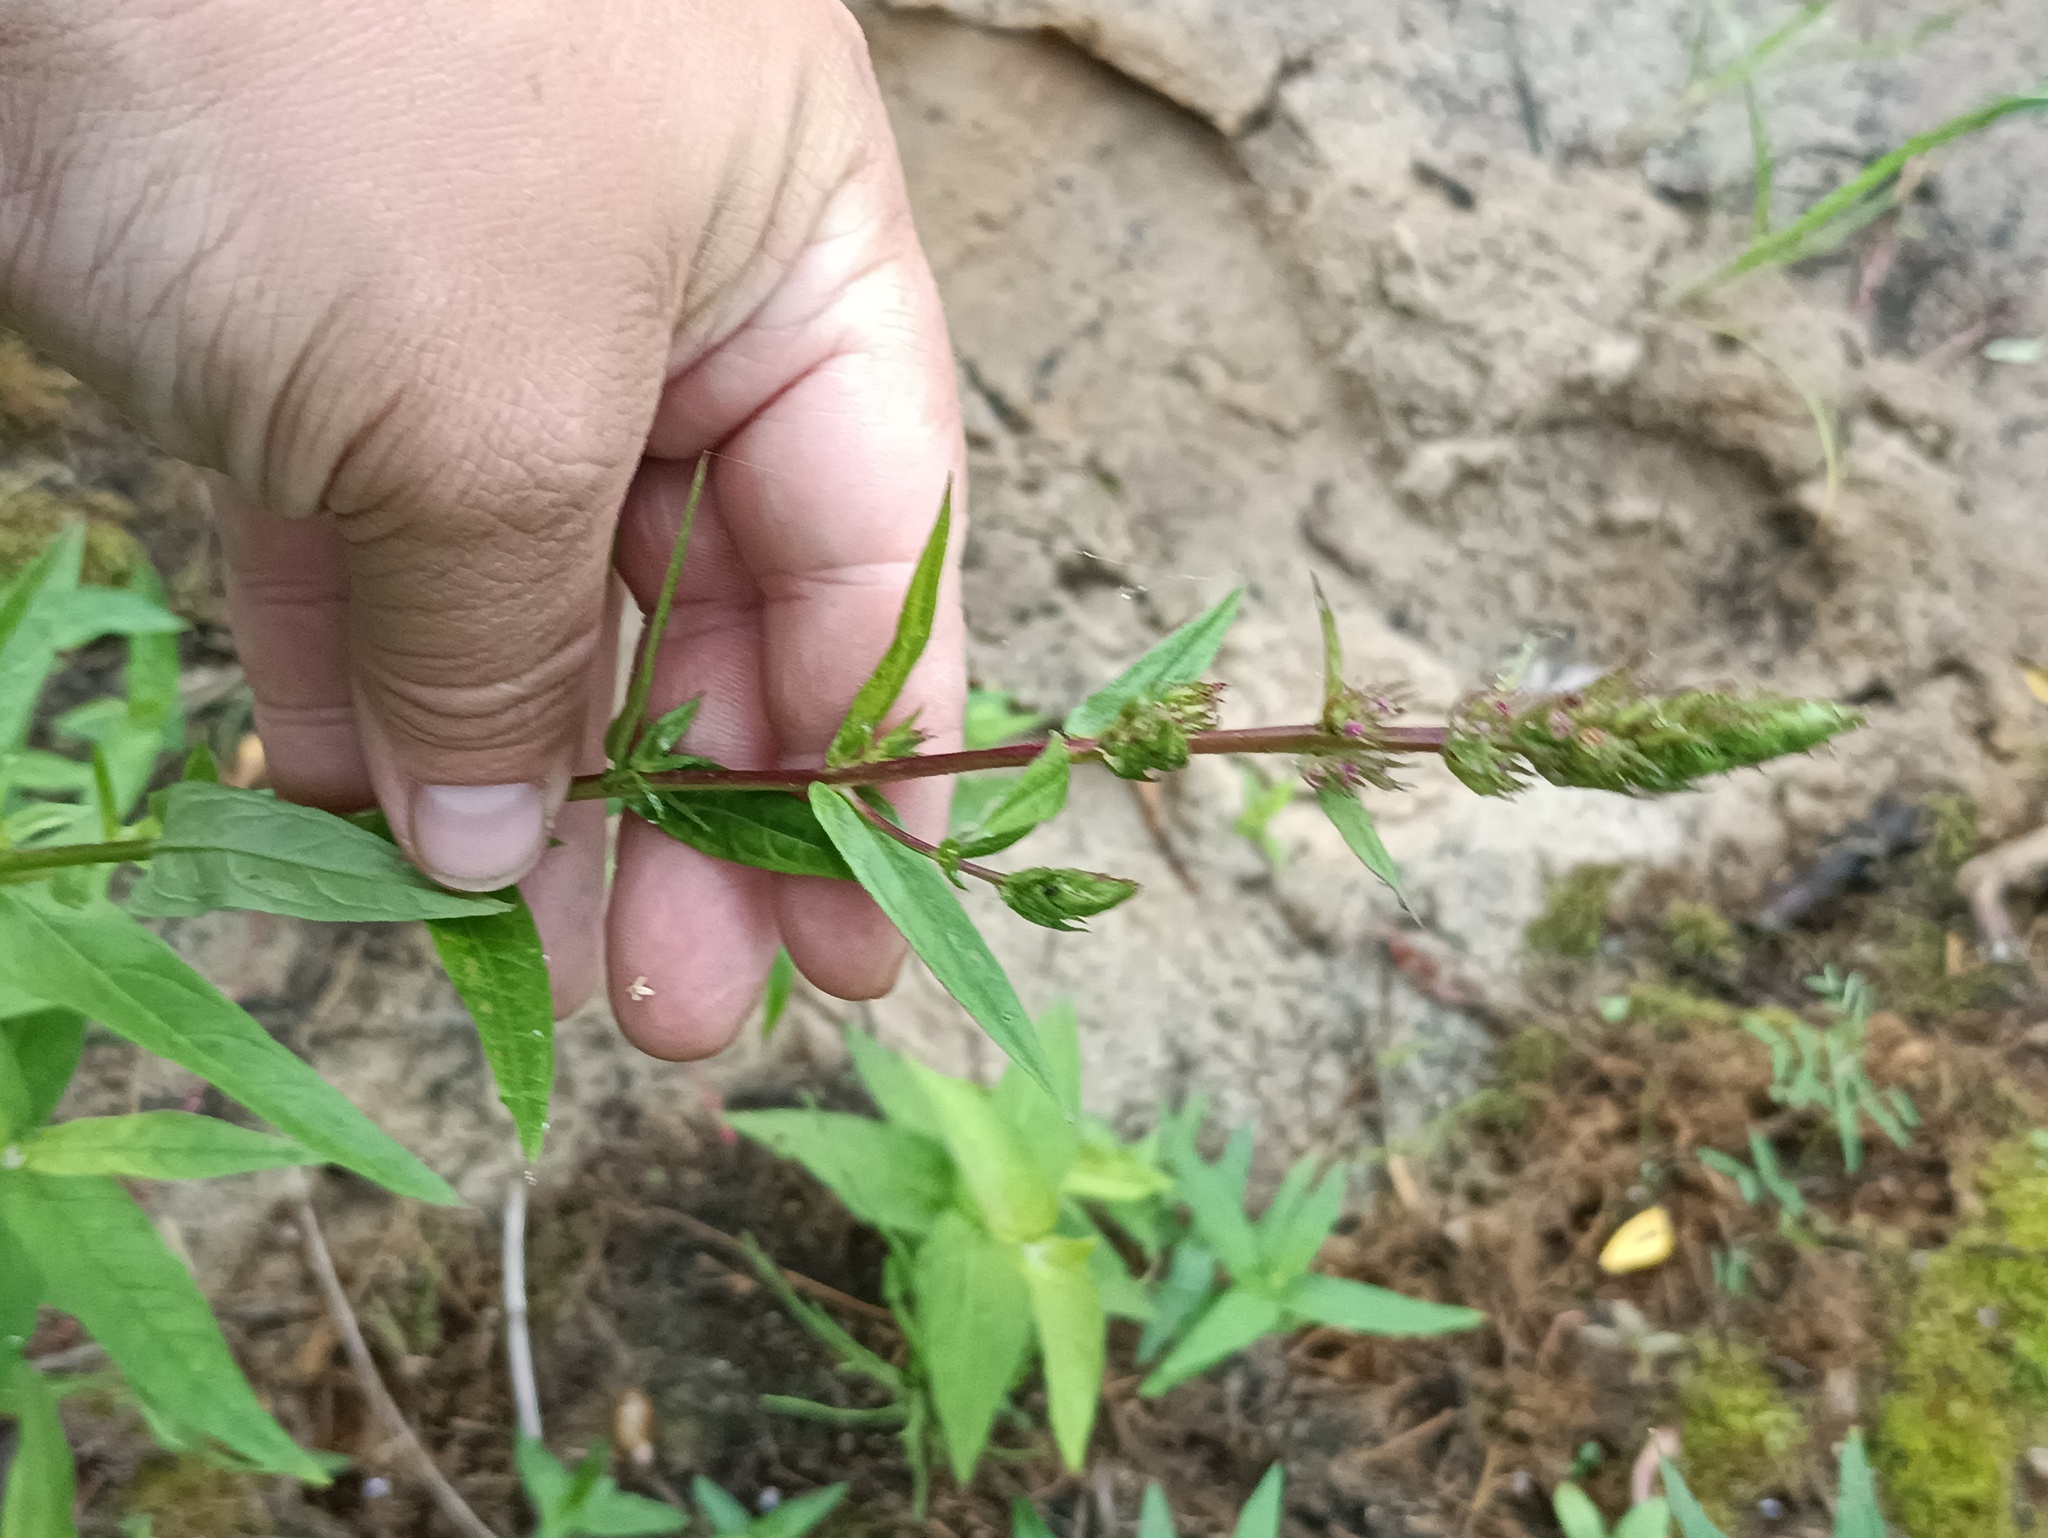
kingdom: Plantae
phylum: Tracheophyta
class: Magnoliopsida
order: Myrtales
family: Lythraceae
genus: Lythrum
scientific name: Lythrum salicaria
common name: Purple loosestrife
